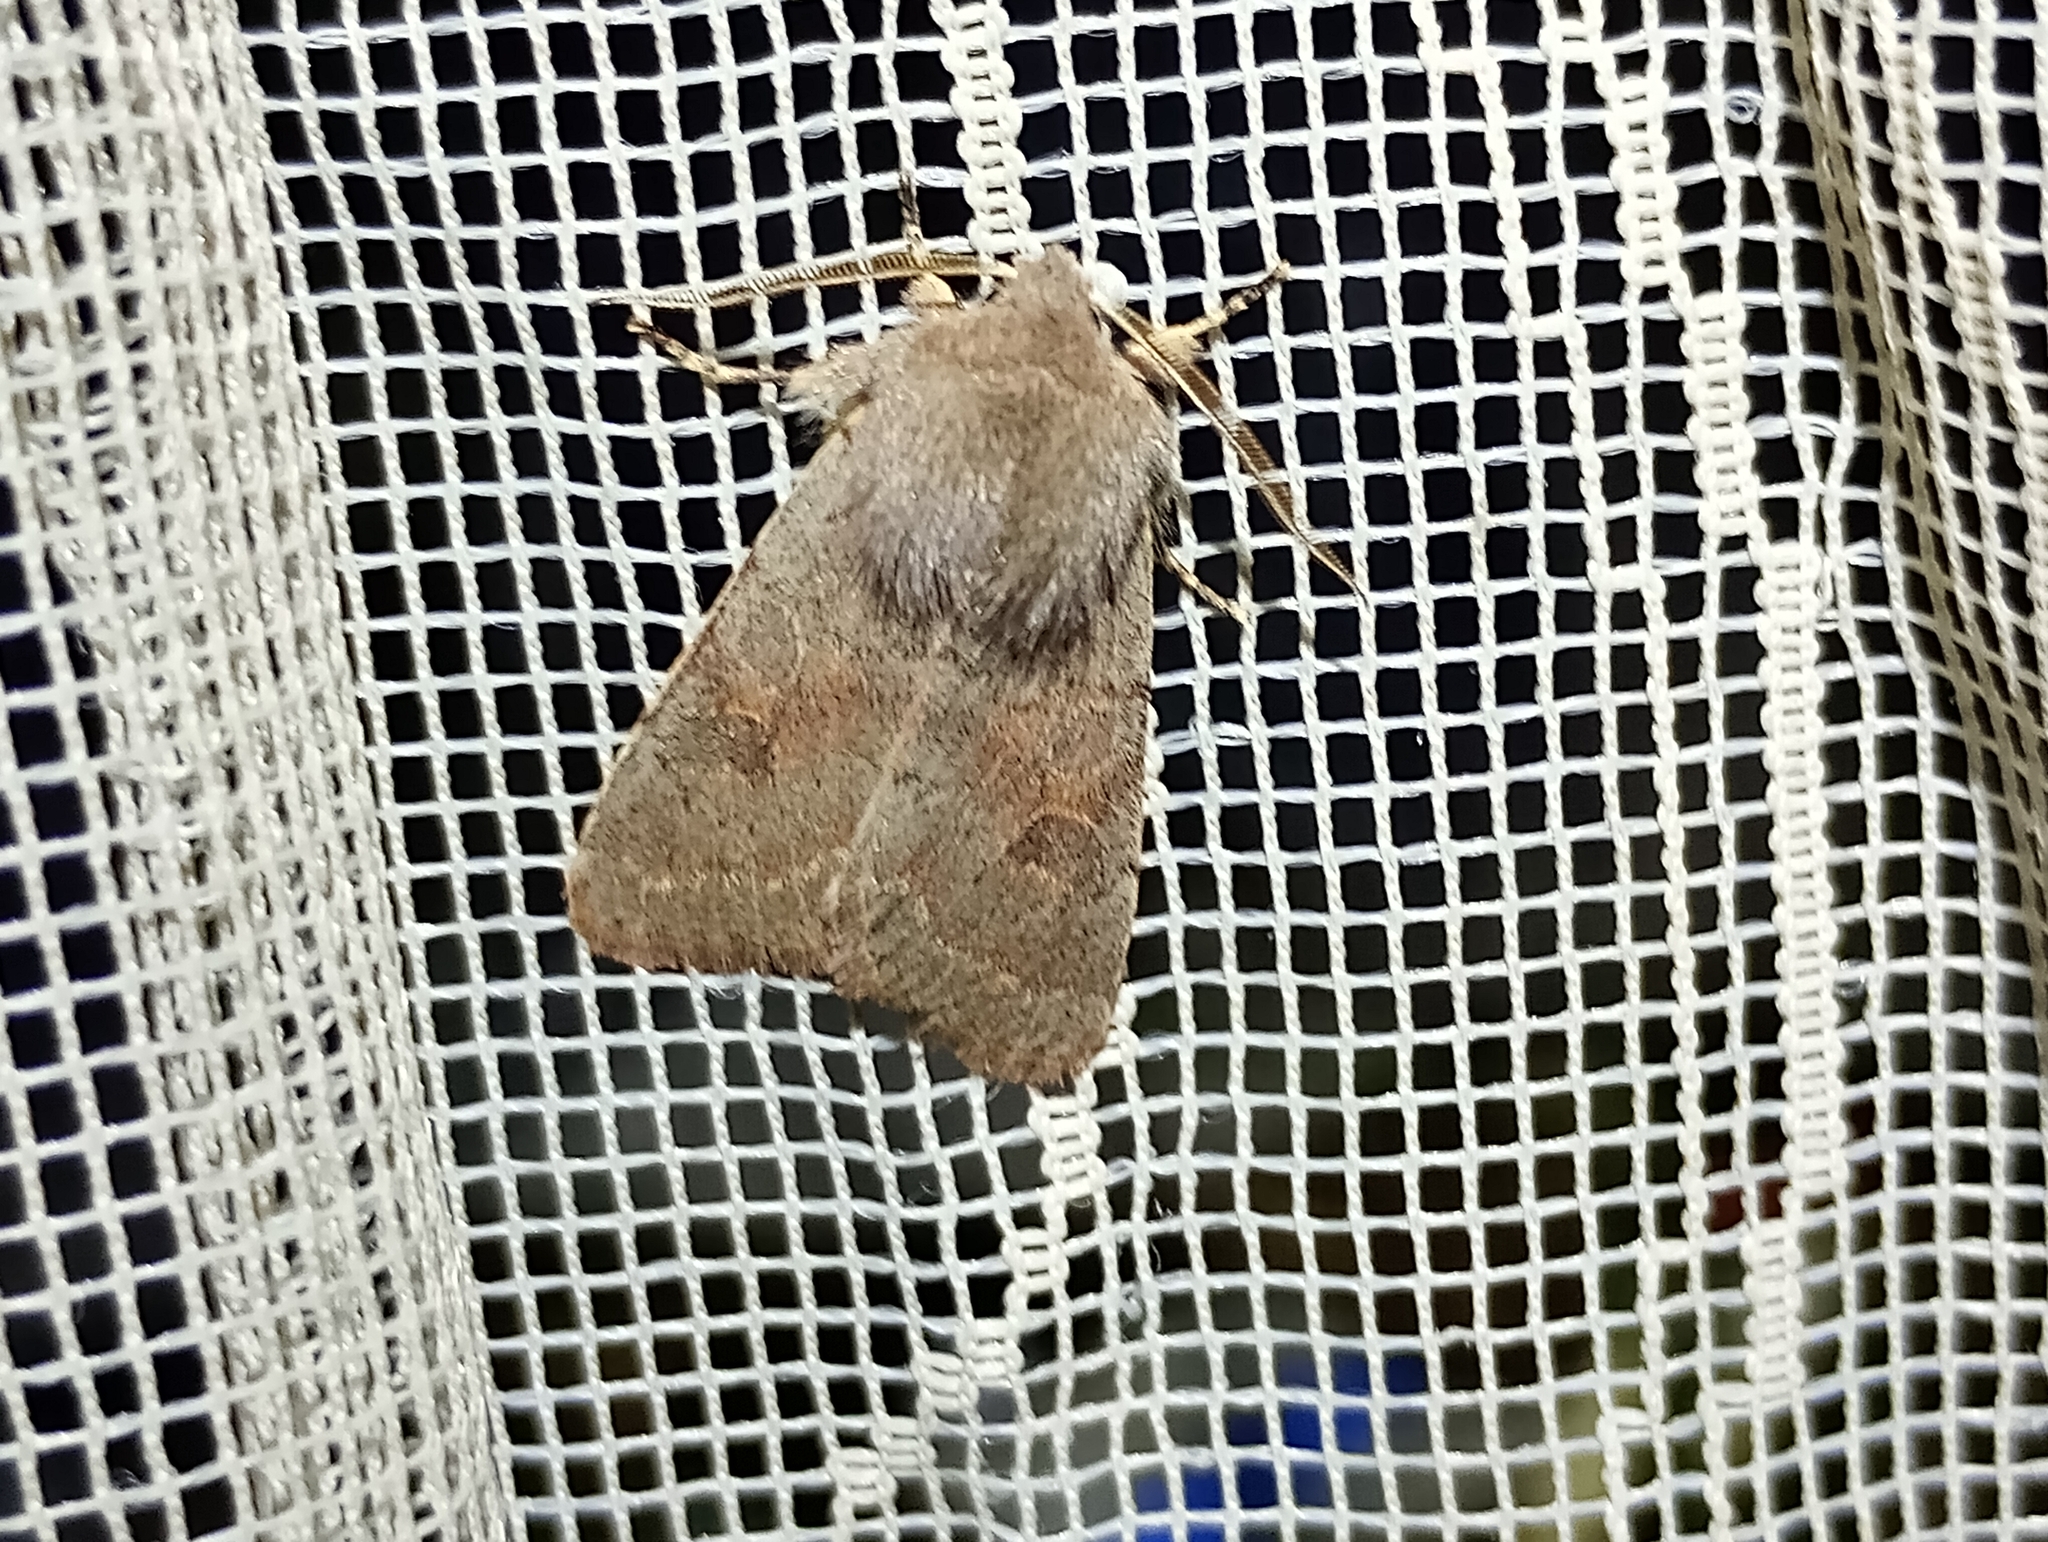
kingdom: Animalia
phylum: Arthropoda
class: Insecta
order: Lepidoptera
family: Noctuidae
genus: Orthosia
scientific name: Orthosia populeti
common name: Lead-coloured drab
